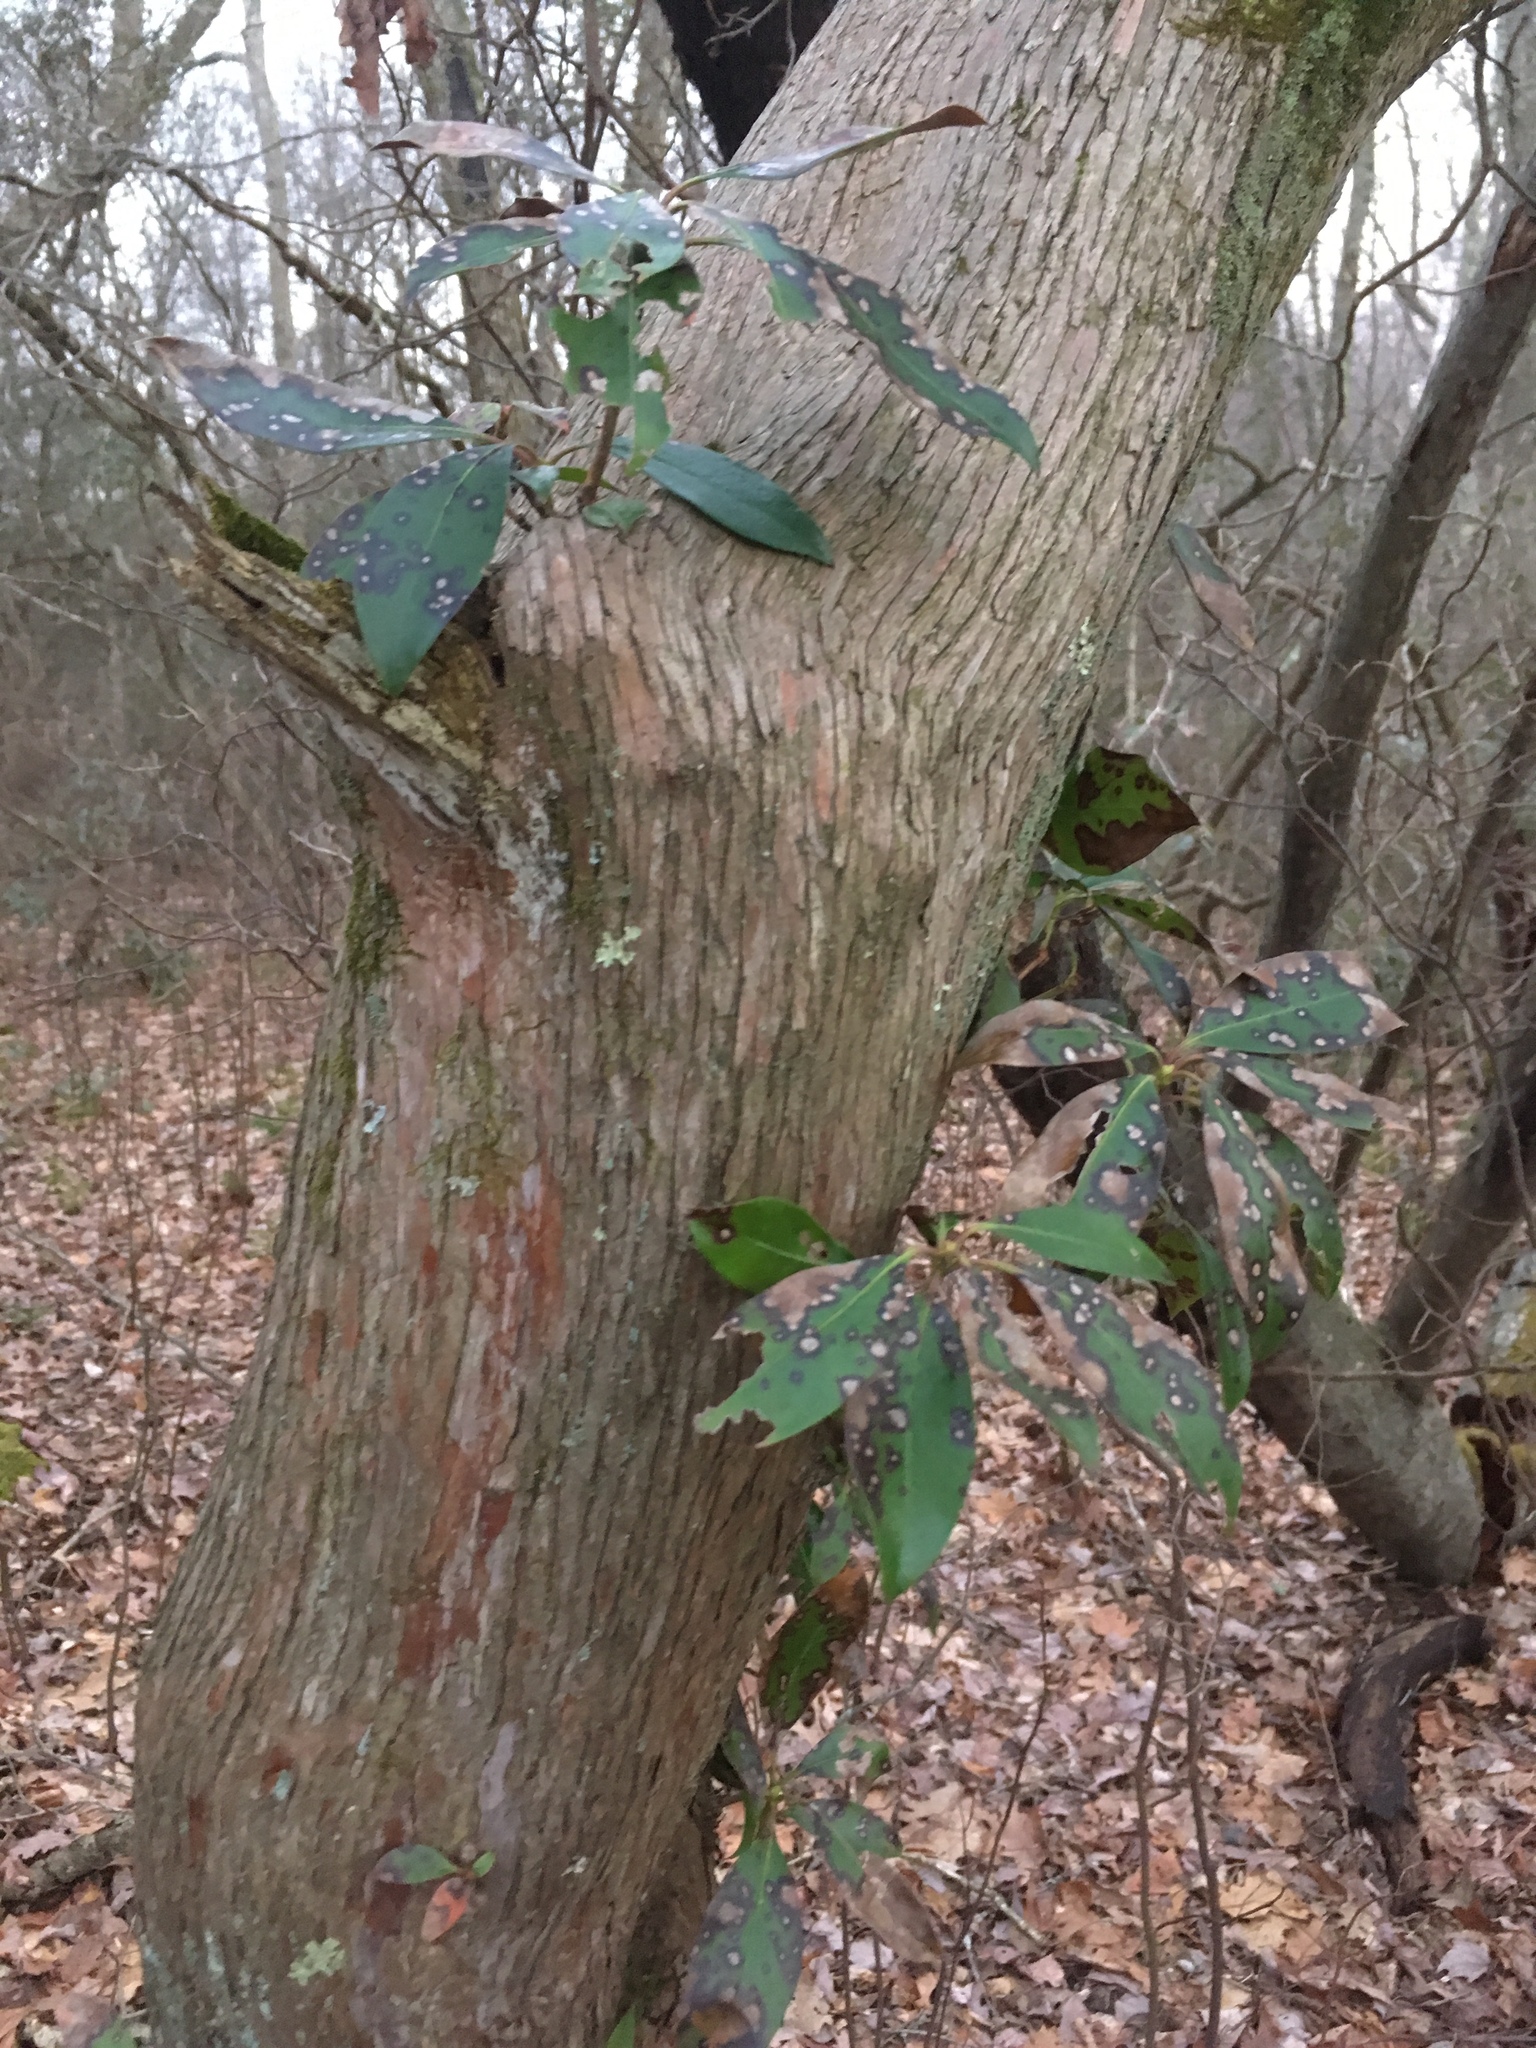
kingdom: Plantae
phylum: Tracheophyta
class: Magnoliopsida
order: Ericales
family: Ericaceae
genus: Kalmia
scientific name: Kalmia latifolia
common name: Mountain-laurel
